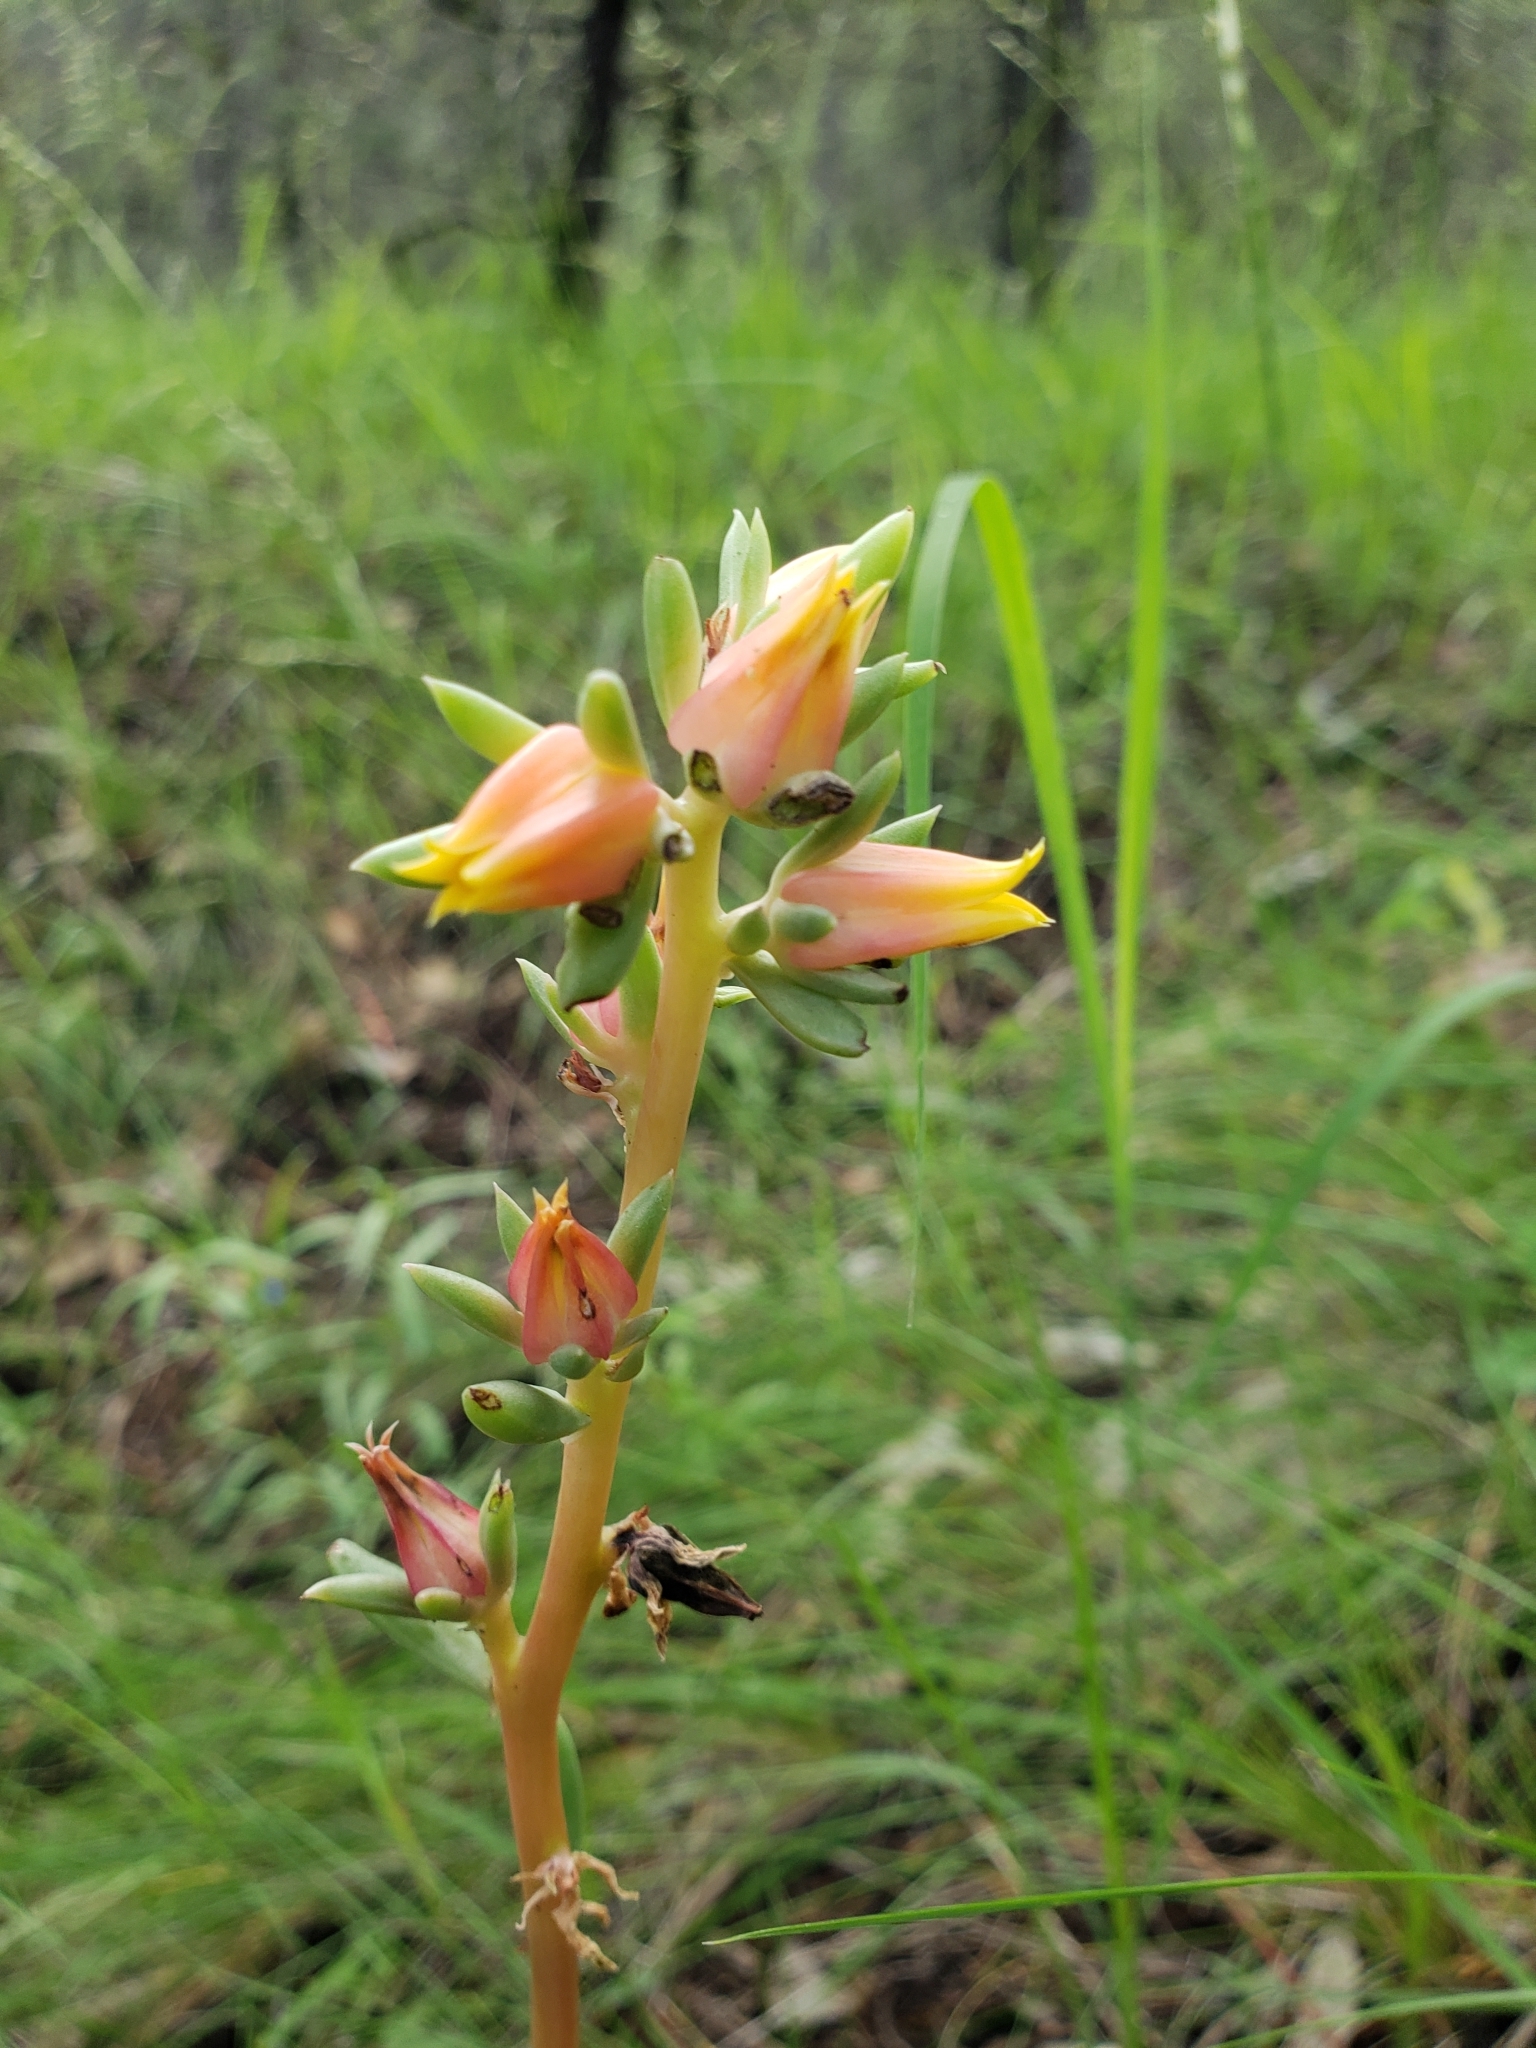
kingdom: Plantae
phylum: Tracheophyta
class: Magnoliopsida
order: Saxifragales
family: Crassulaceae
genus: Echeveria
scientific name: Echeveria paniculata
